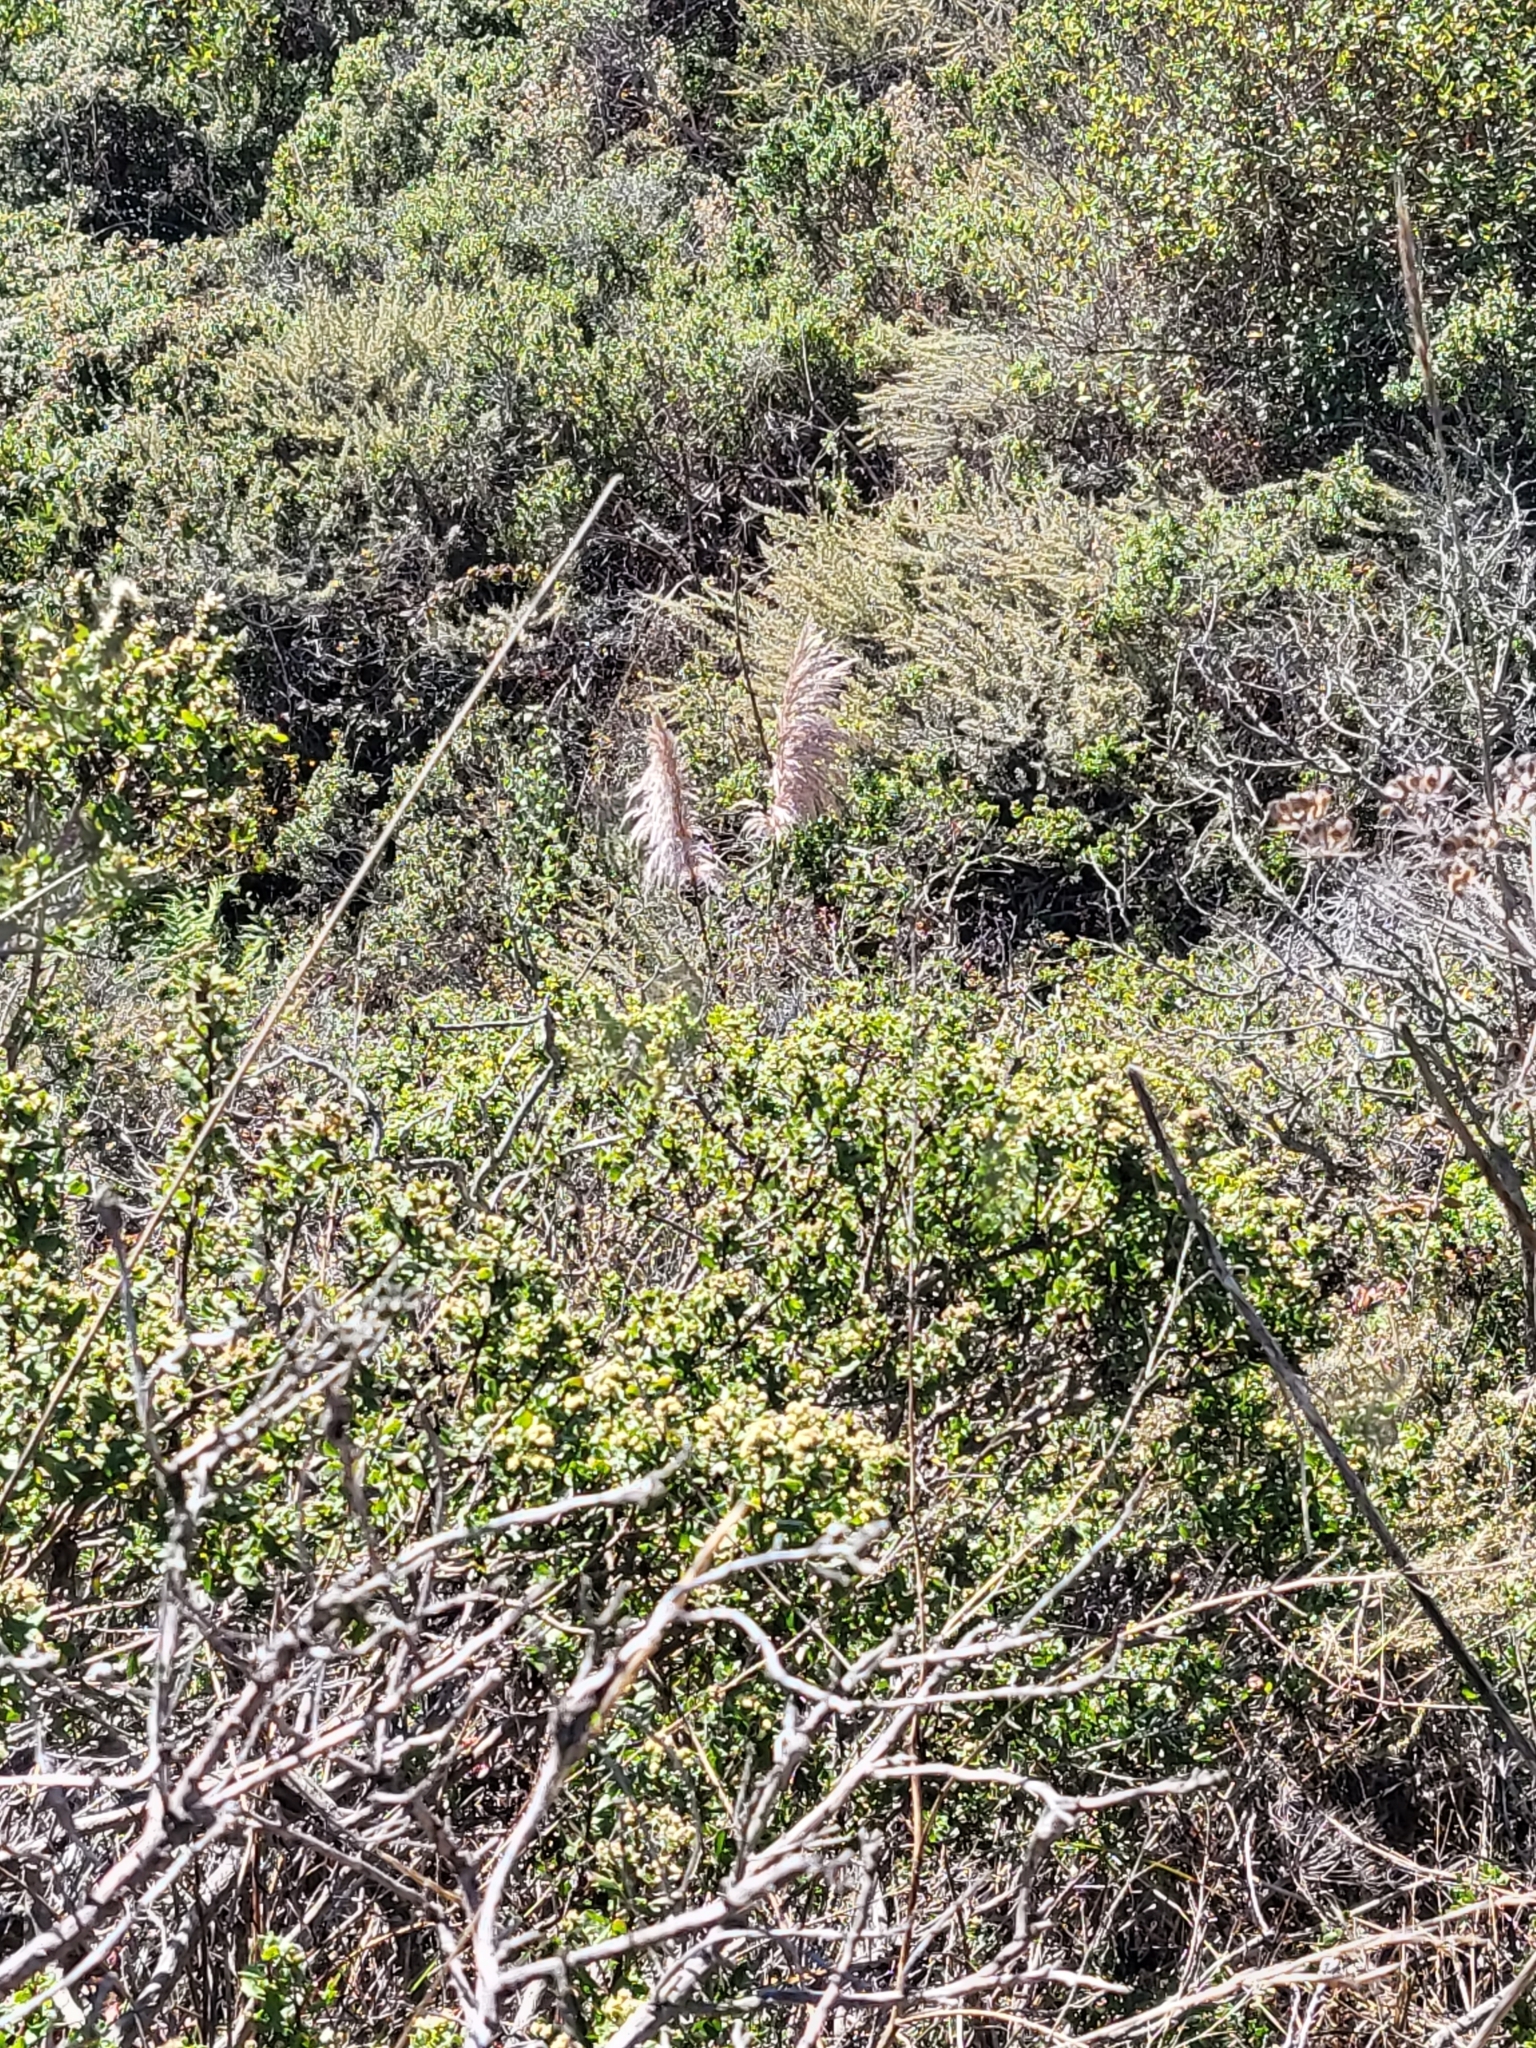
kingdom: Plantae
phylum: Tracheophyta
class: Liliopsida
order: Poales
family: Poaceae
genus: Cortaderia
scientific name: Cortaderia jubata
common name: Purple pampas grass
